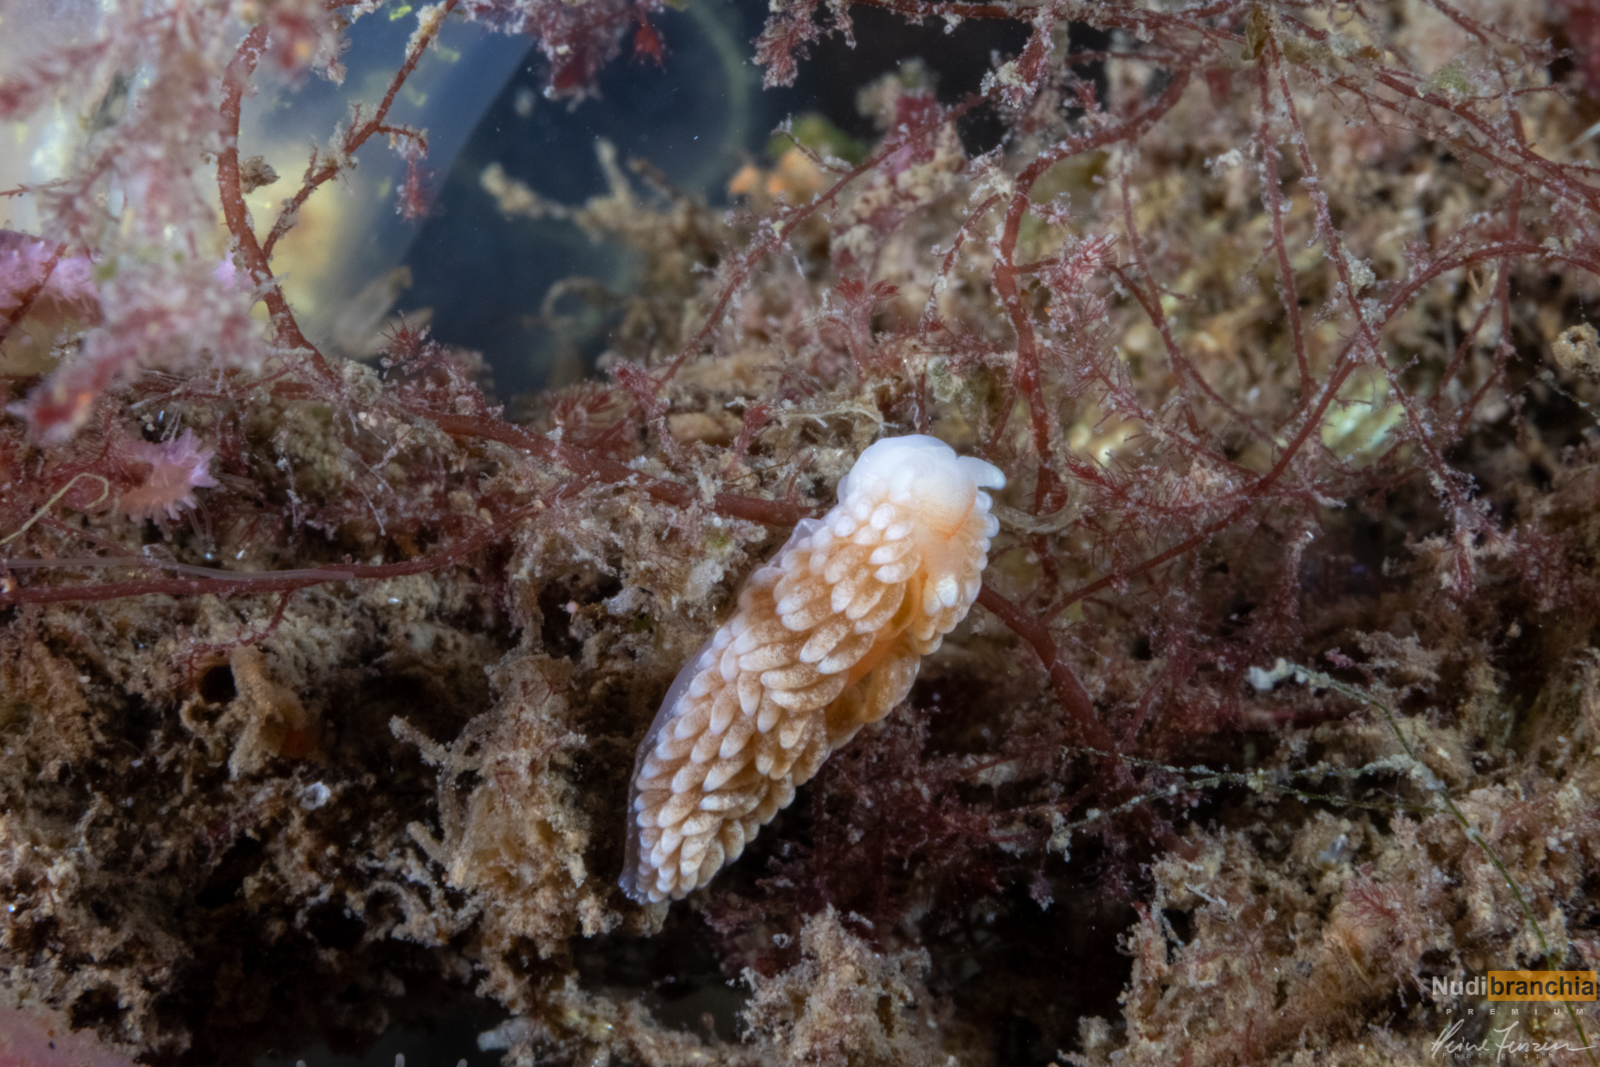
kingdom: Animalia
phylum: Mollusca
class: Gastropoda
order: Nudibranchia
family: Aeolidiidae
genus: Aeolidiella
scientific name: Aeolidiella glauca
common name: Orange-brown aeolid
